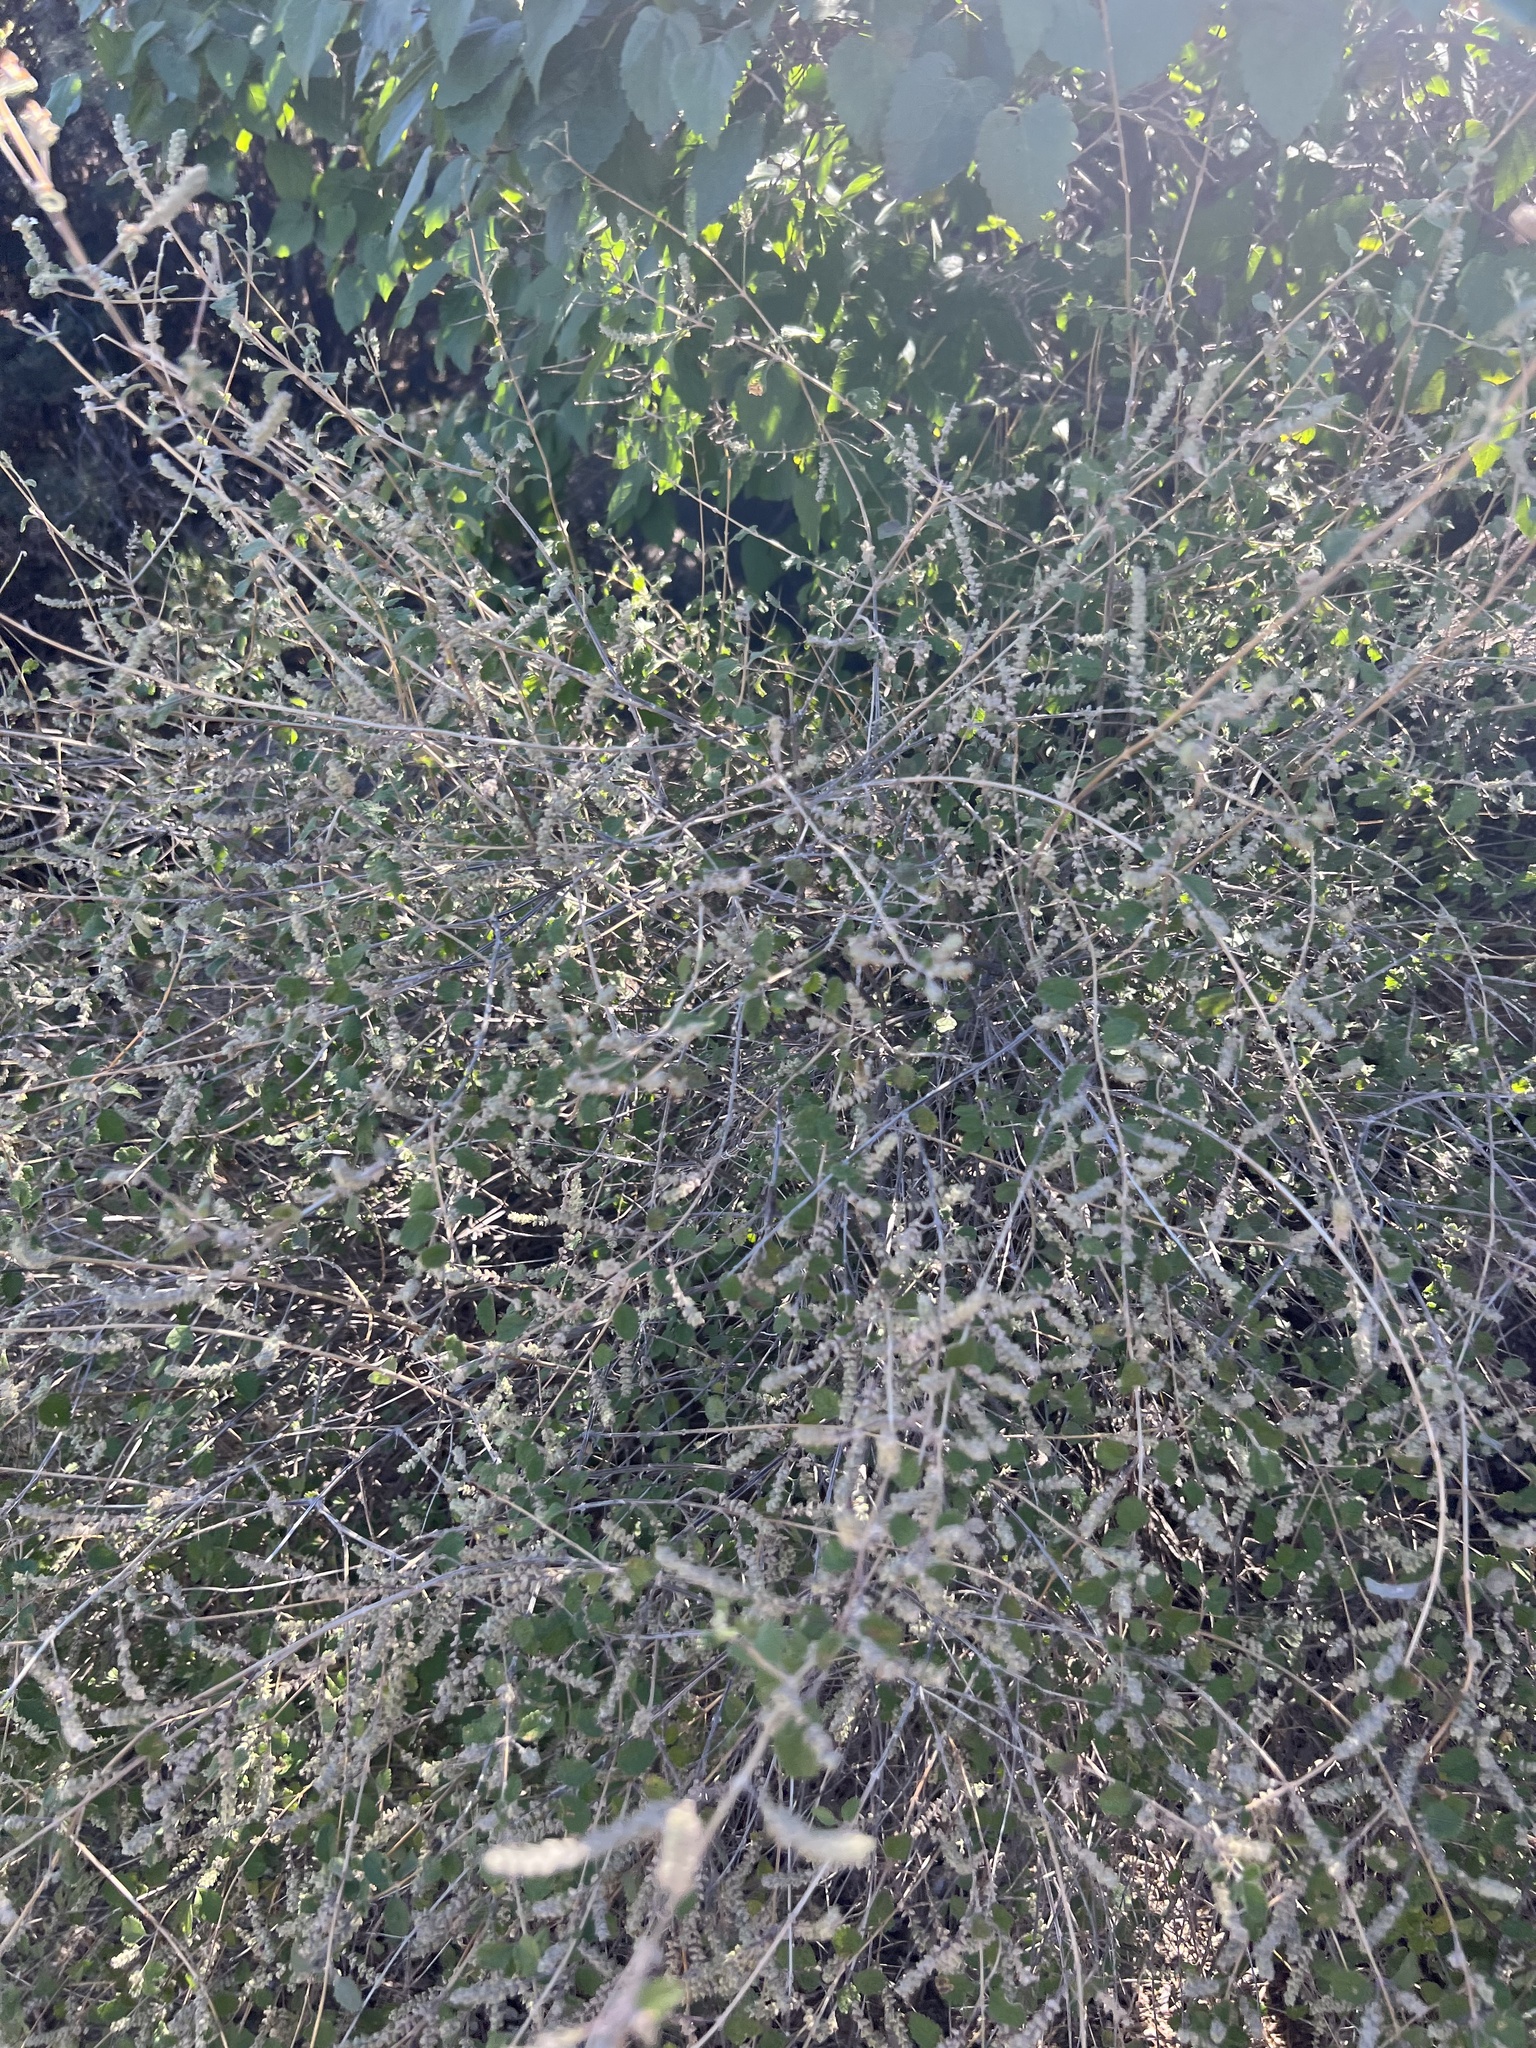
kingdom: Plantae
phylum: Tracheophyta
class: Magnoliopsida
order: Lamiales
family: Verbenaceae
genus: Aloysia
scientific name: Aloysia wrightii
